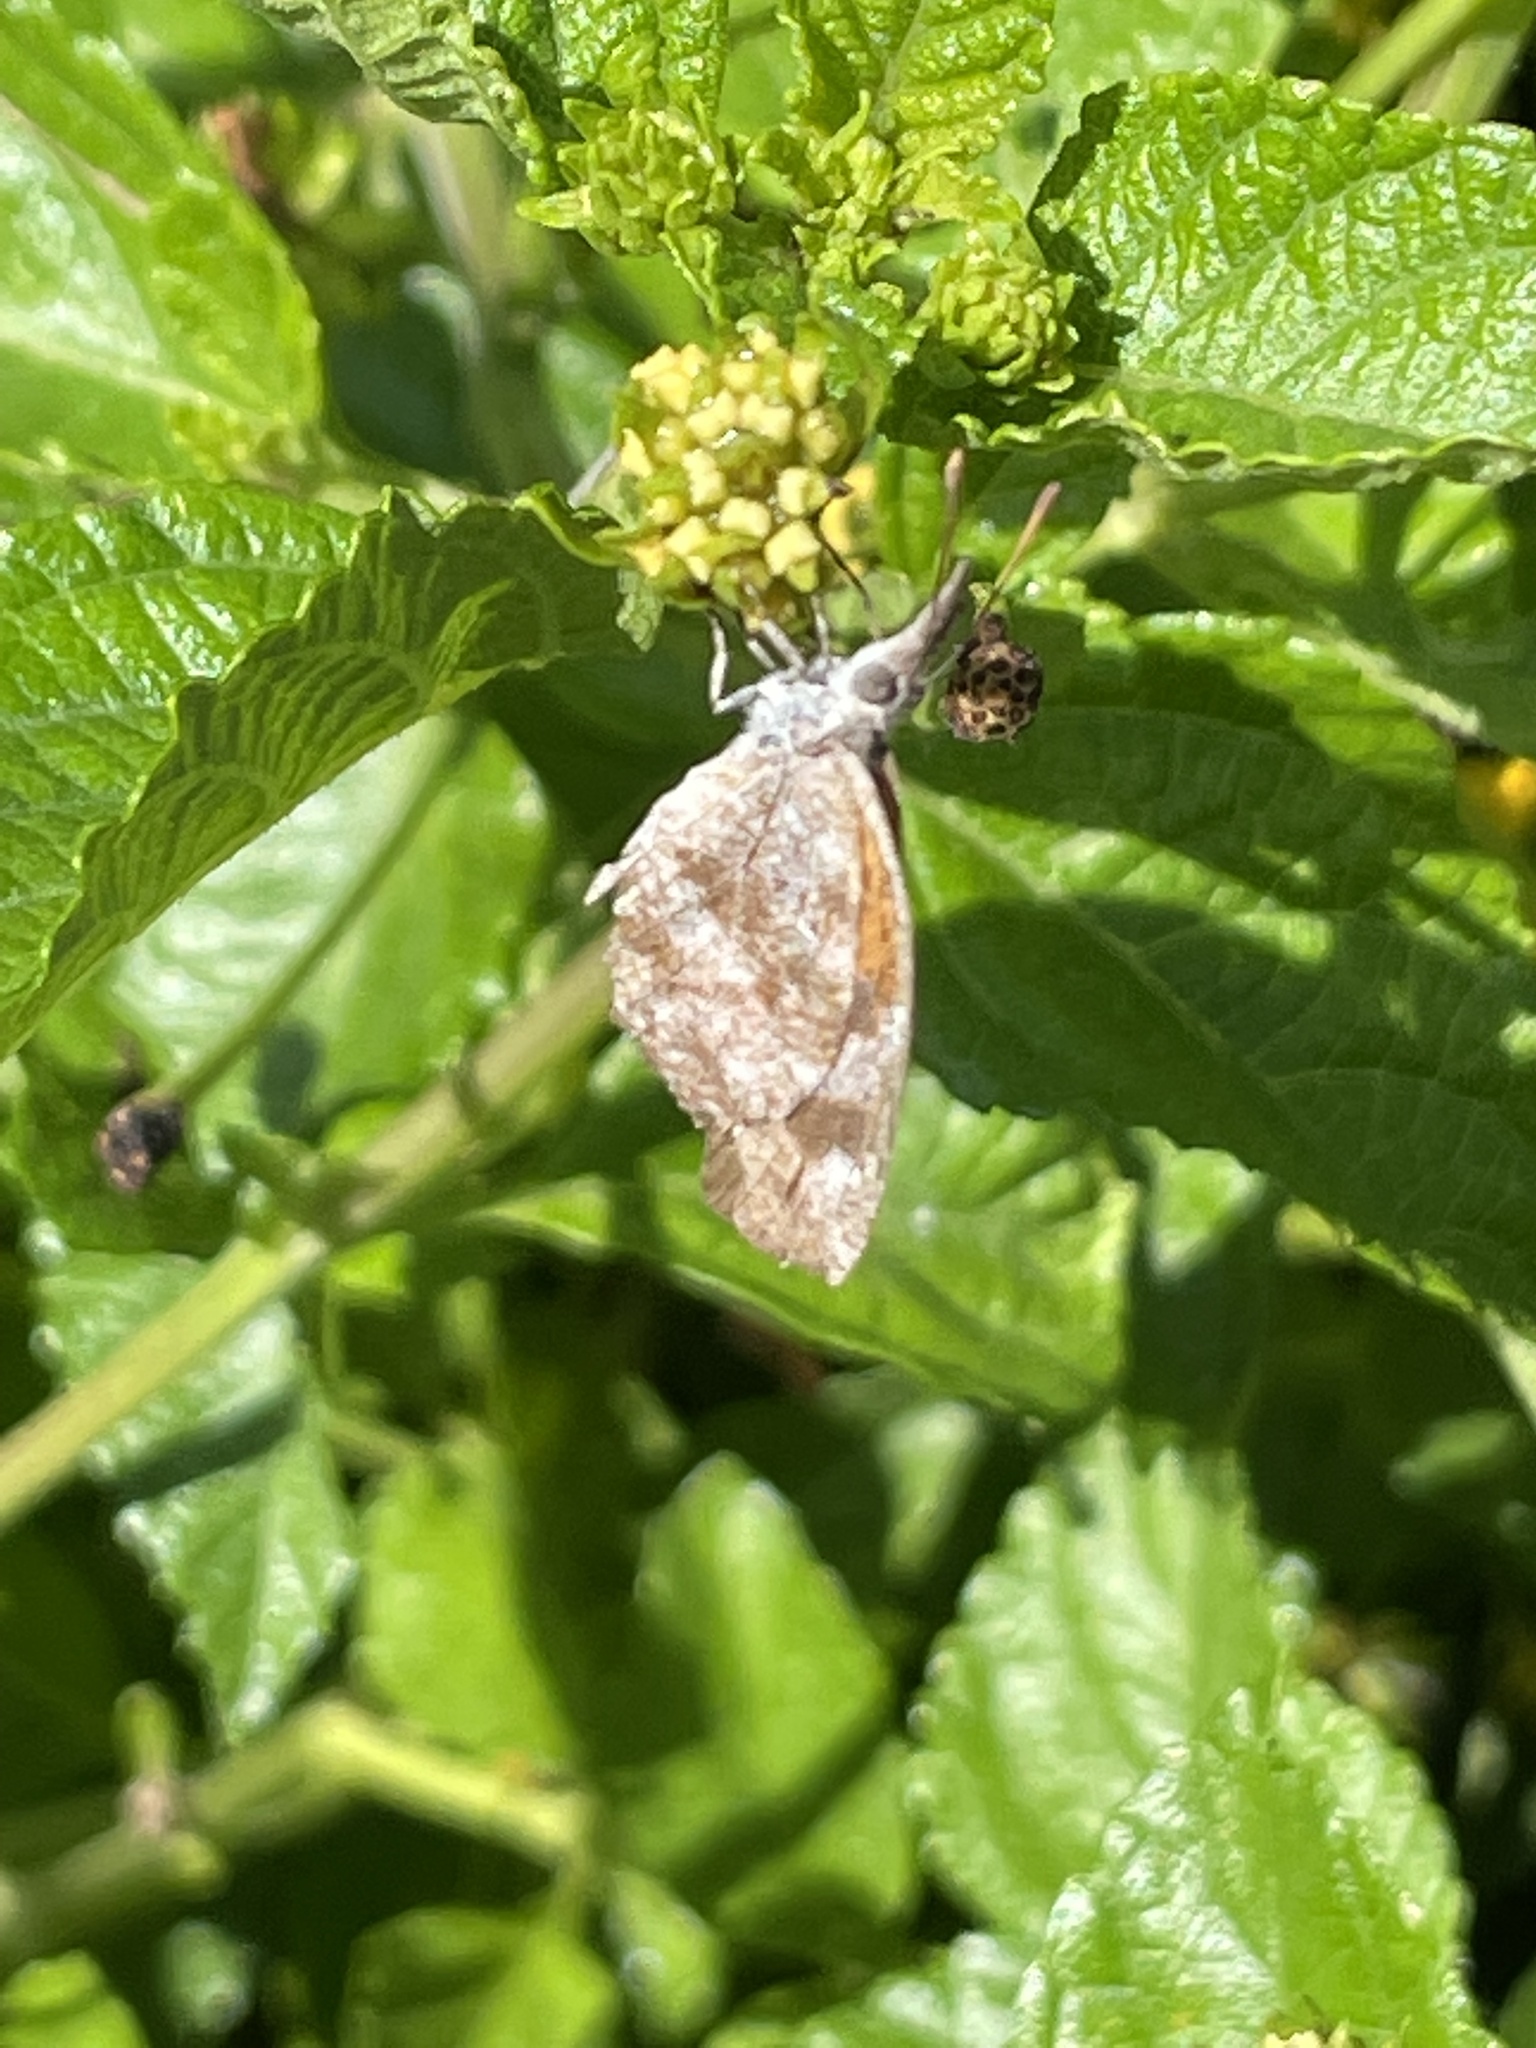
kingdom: Animalia
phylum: Arthropoda
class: Insecta
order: Lepidoptera
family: Nymphalidae
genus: Libytheana
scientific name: Libytheana carinenta
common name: American snout
